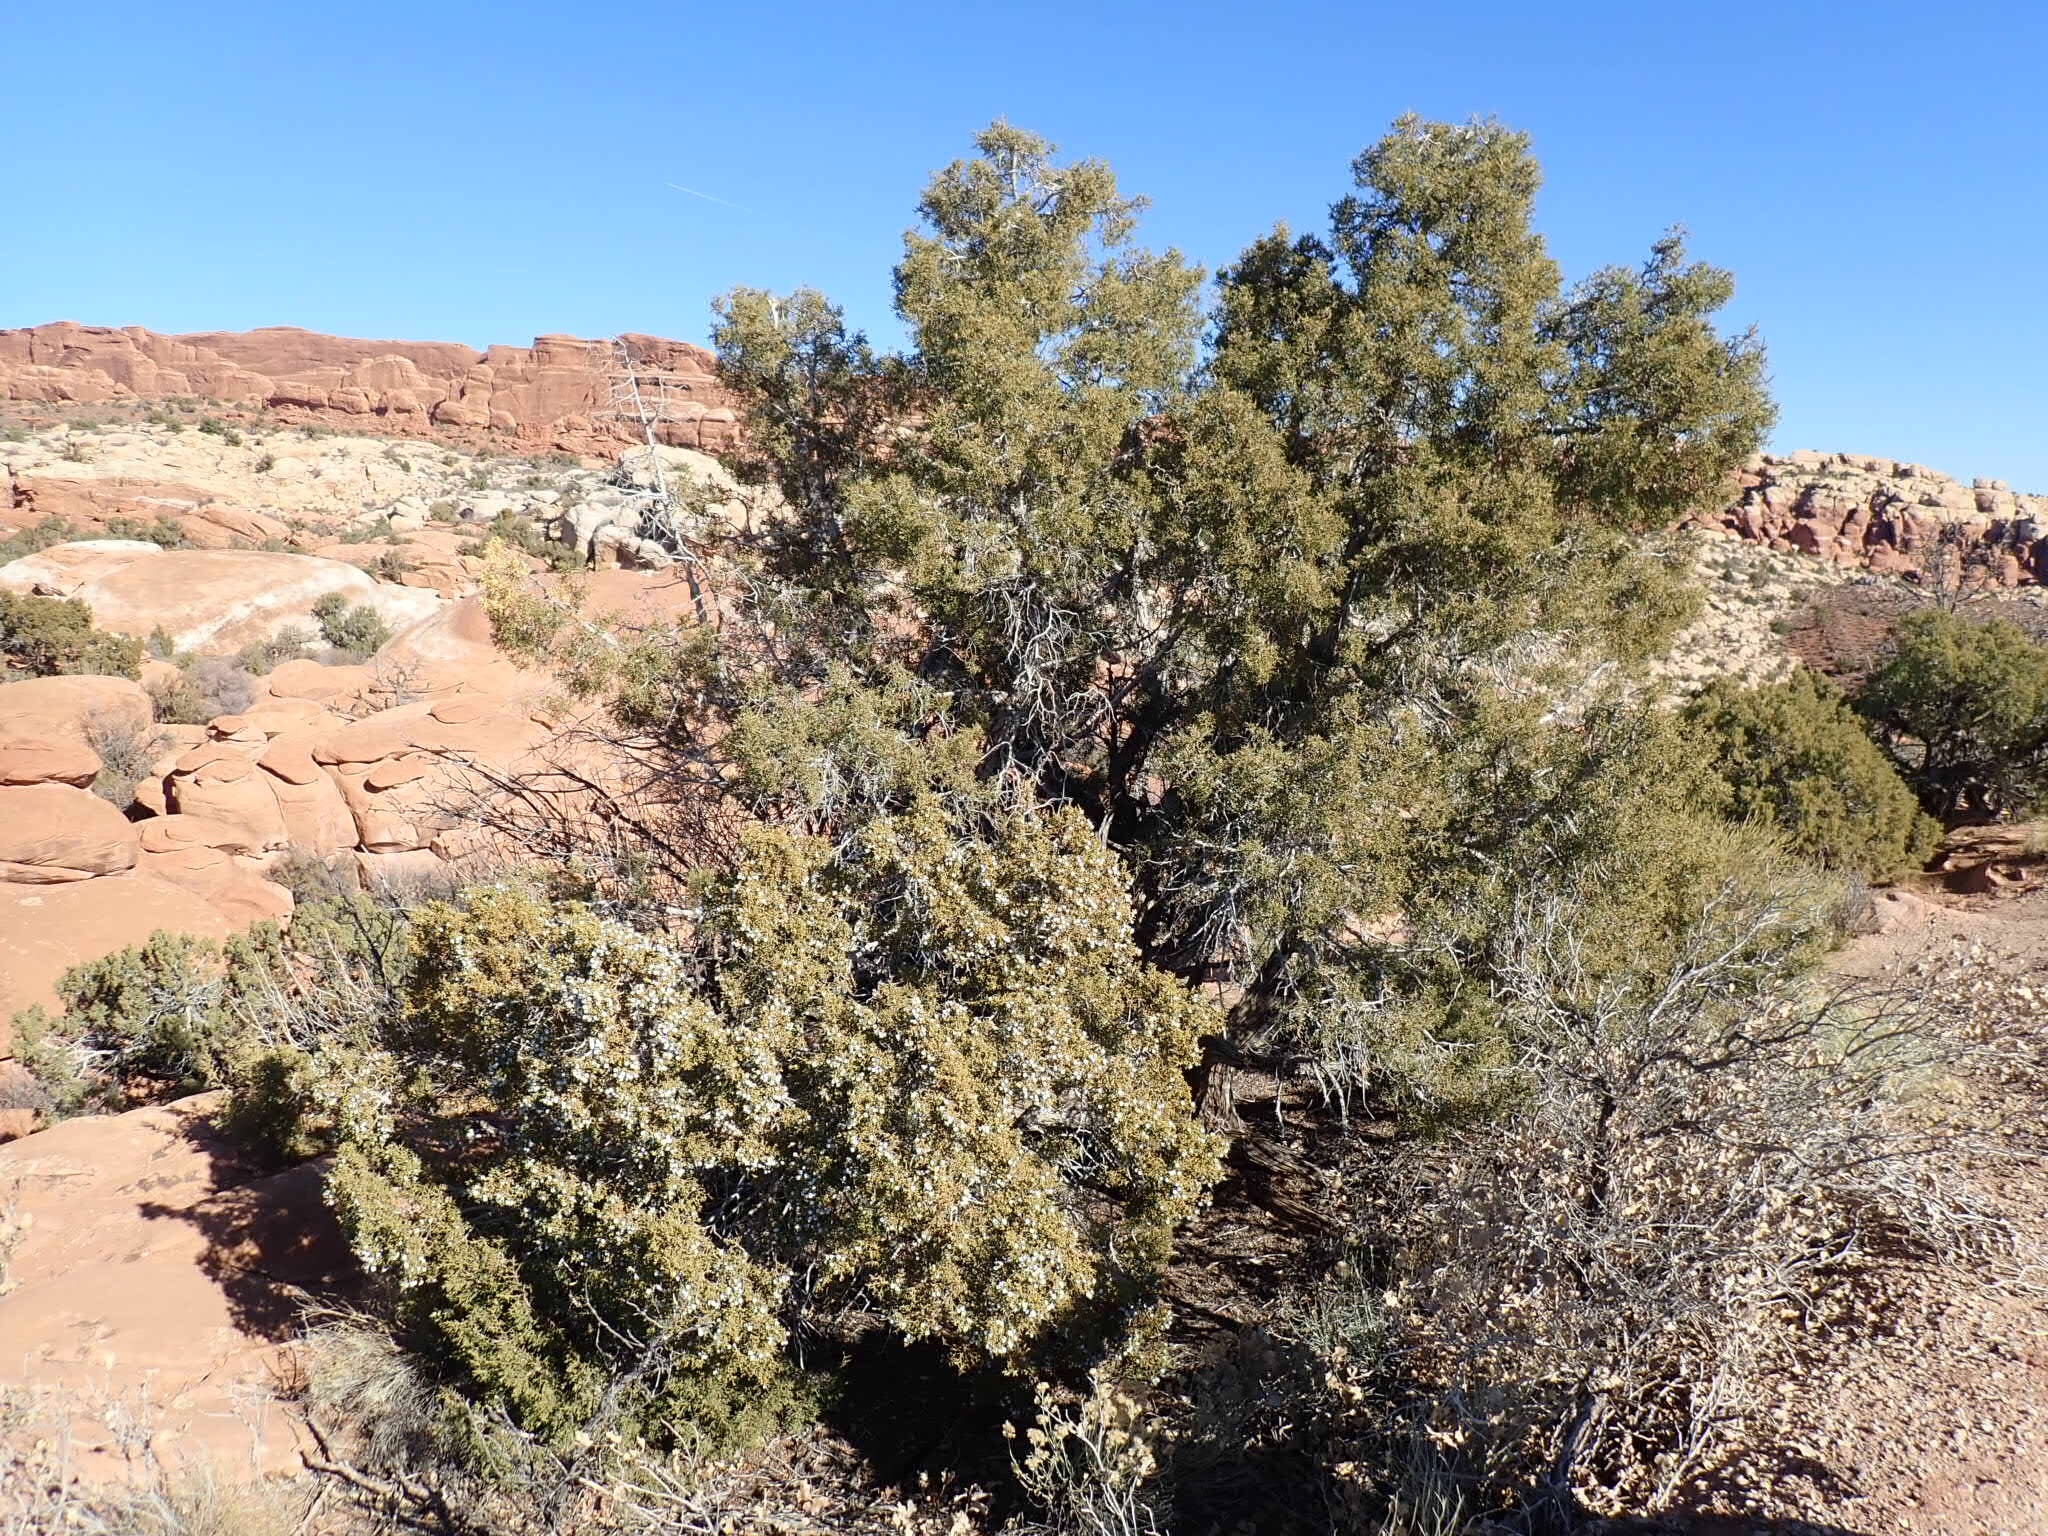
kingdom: Plantae
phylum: Tracheophyta
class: Pinopsida
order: Pinales
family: Cupressaceae
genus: Juniperus
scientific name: Juniperus osteosperma
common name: Utah juniper
